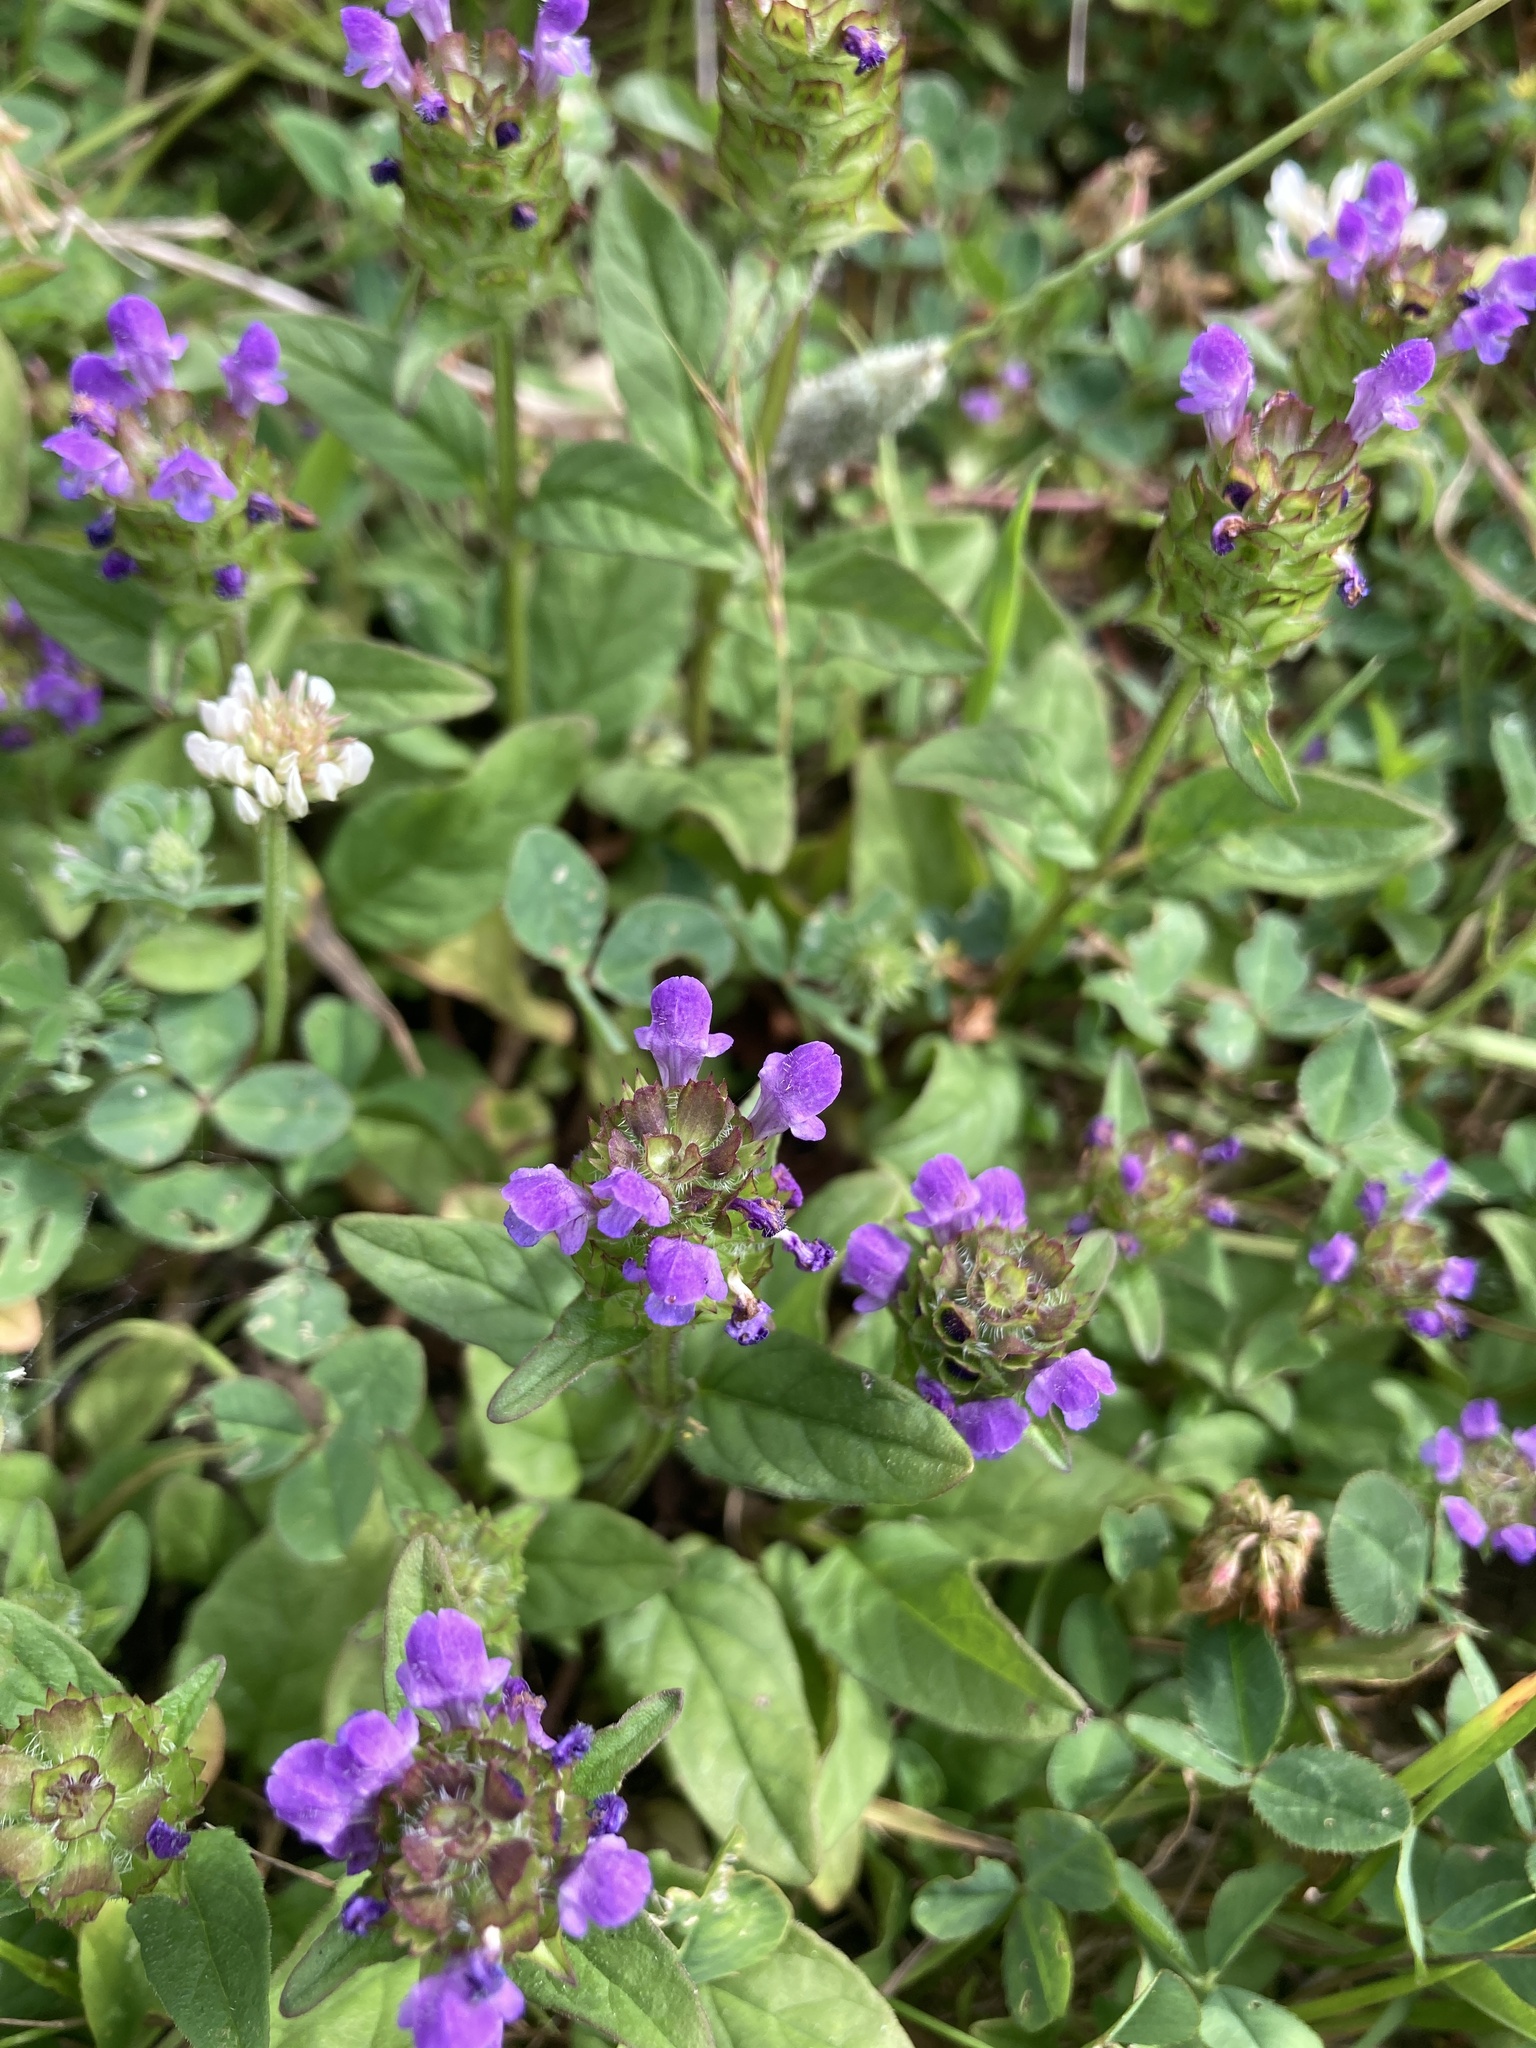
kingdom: Plantae
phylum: Tracheophyta
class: Magnoliopsida
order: Lamiales
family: Lamiaceae
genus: Prunella
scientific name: Prunella vulgaris
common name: Heal-all
